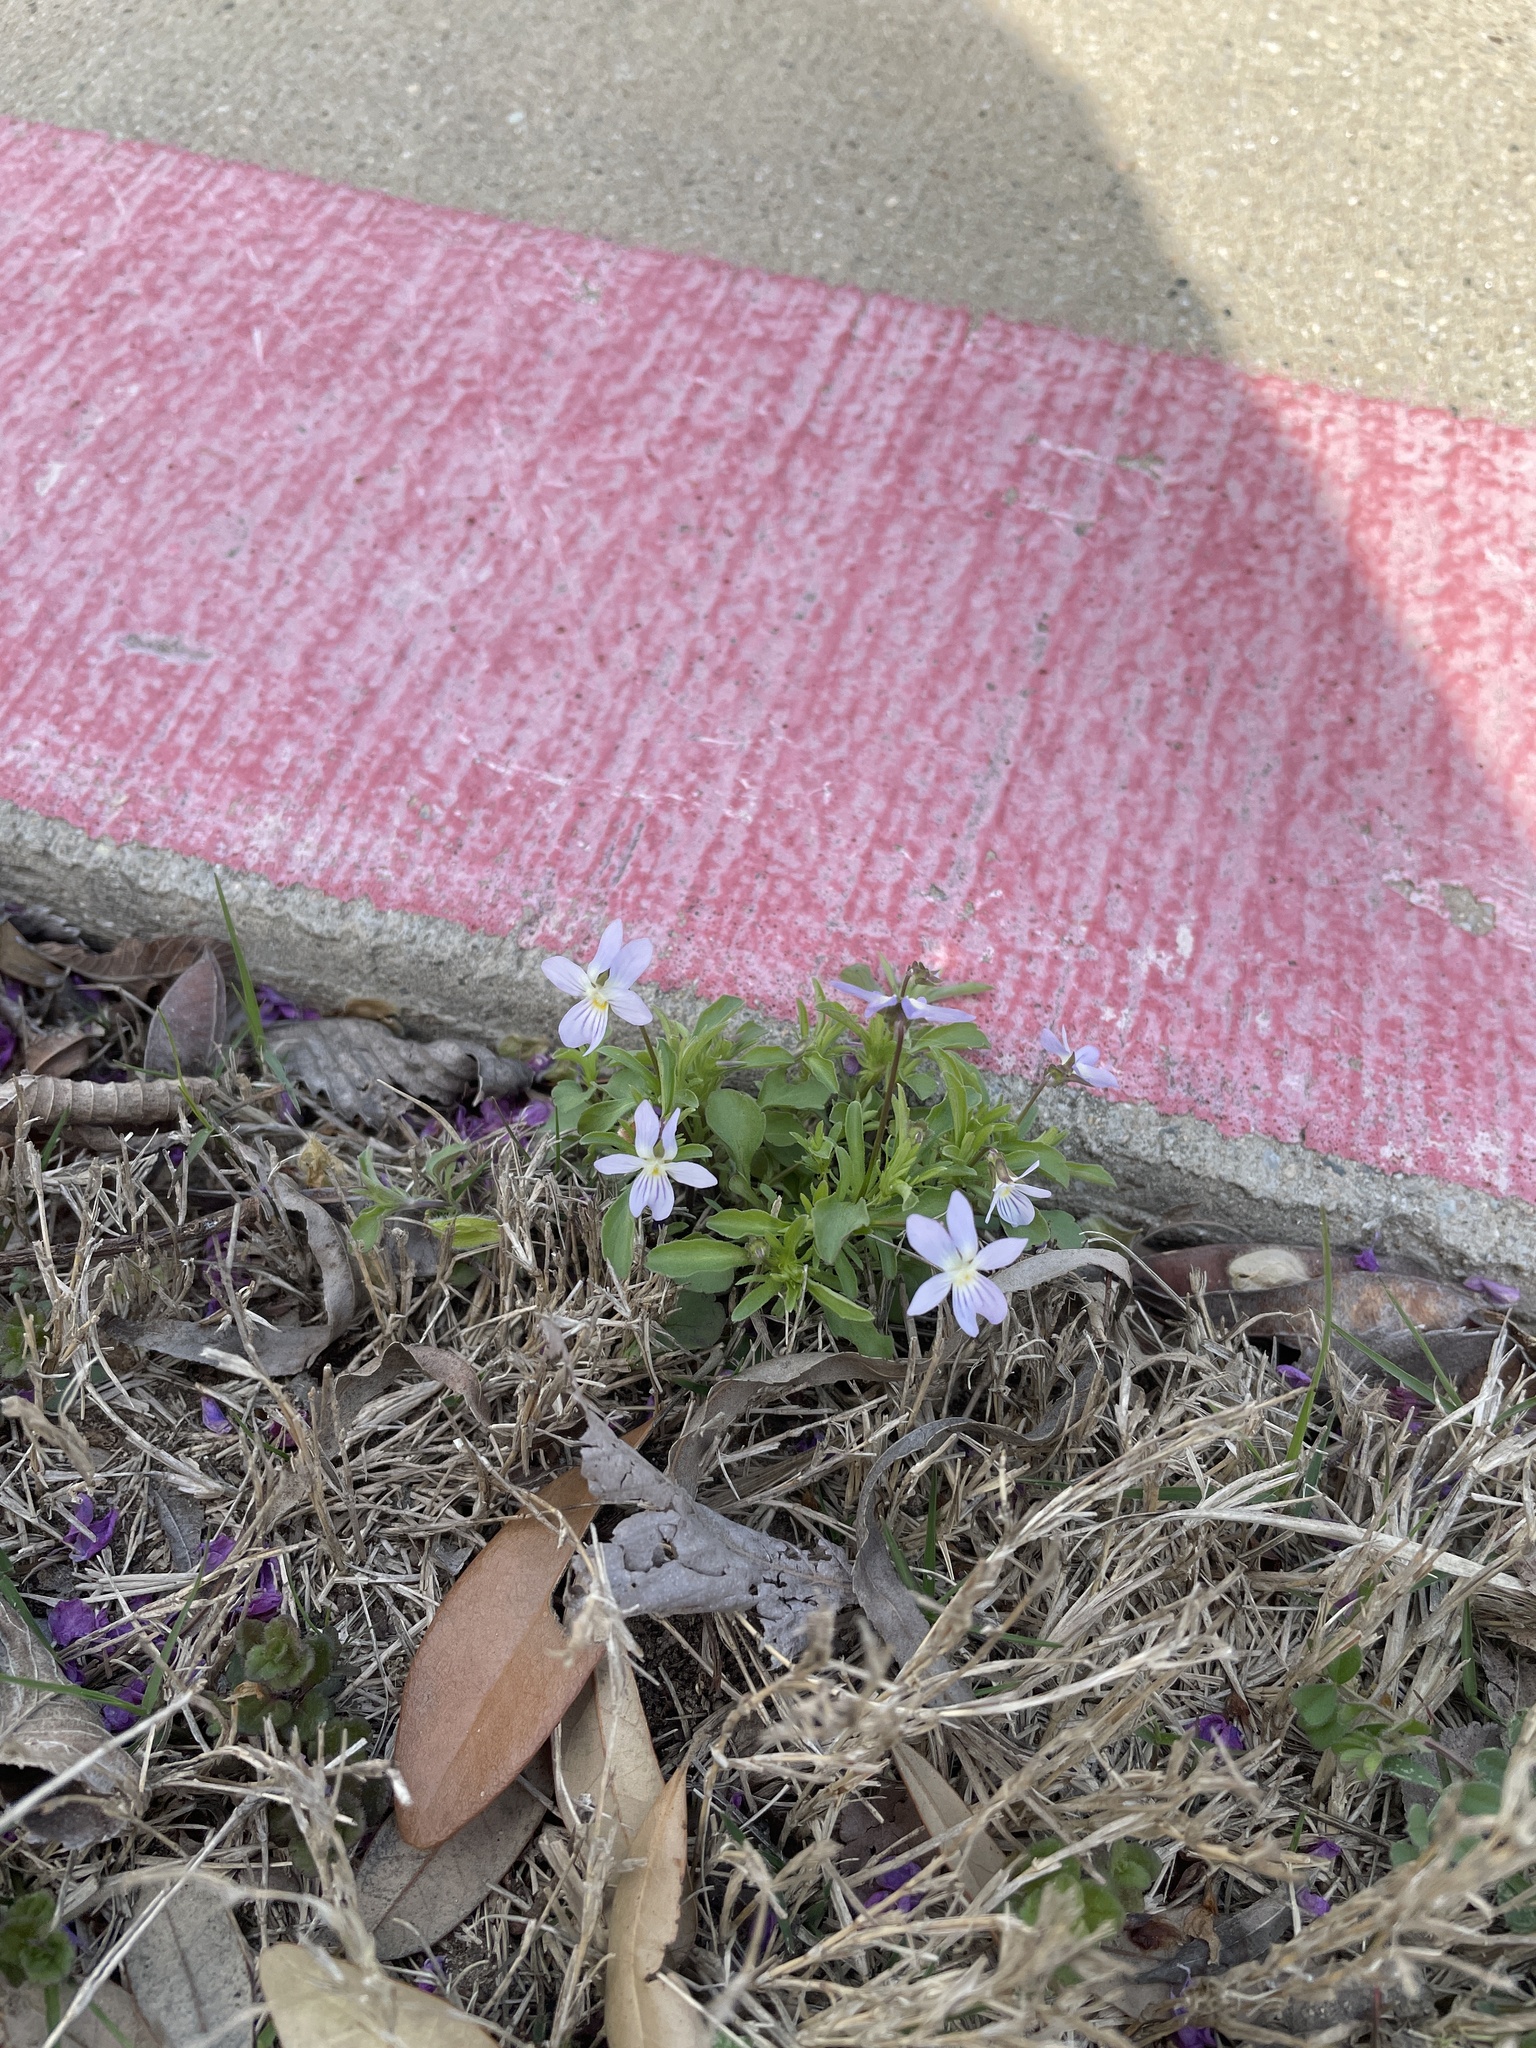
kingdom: Plantae
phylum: Tracheophyta
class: Magnoliopsida
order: Malpighiales
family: Violaceae
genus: Viola
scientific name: Viola rafinesquei
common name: American field pansy
